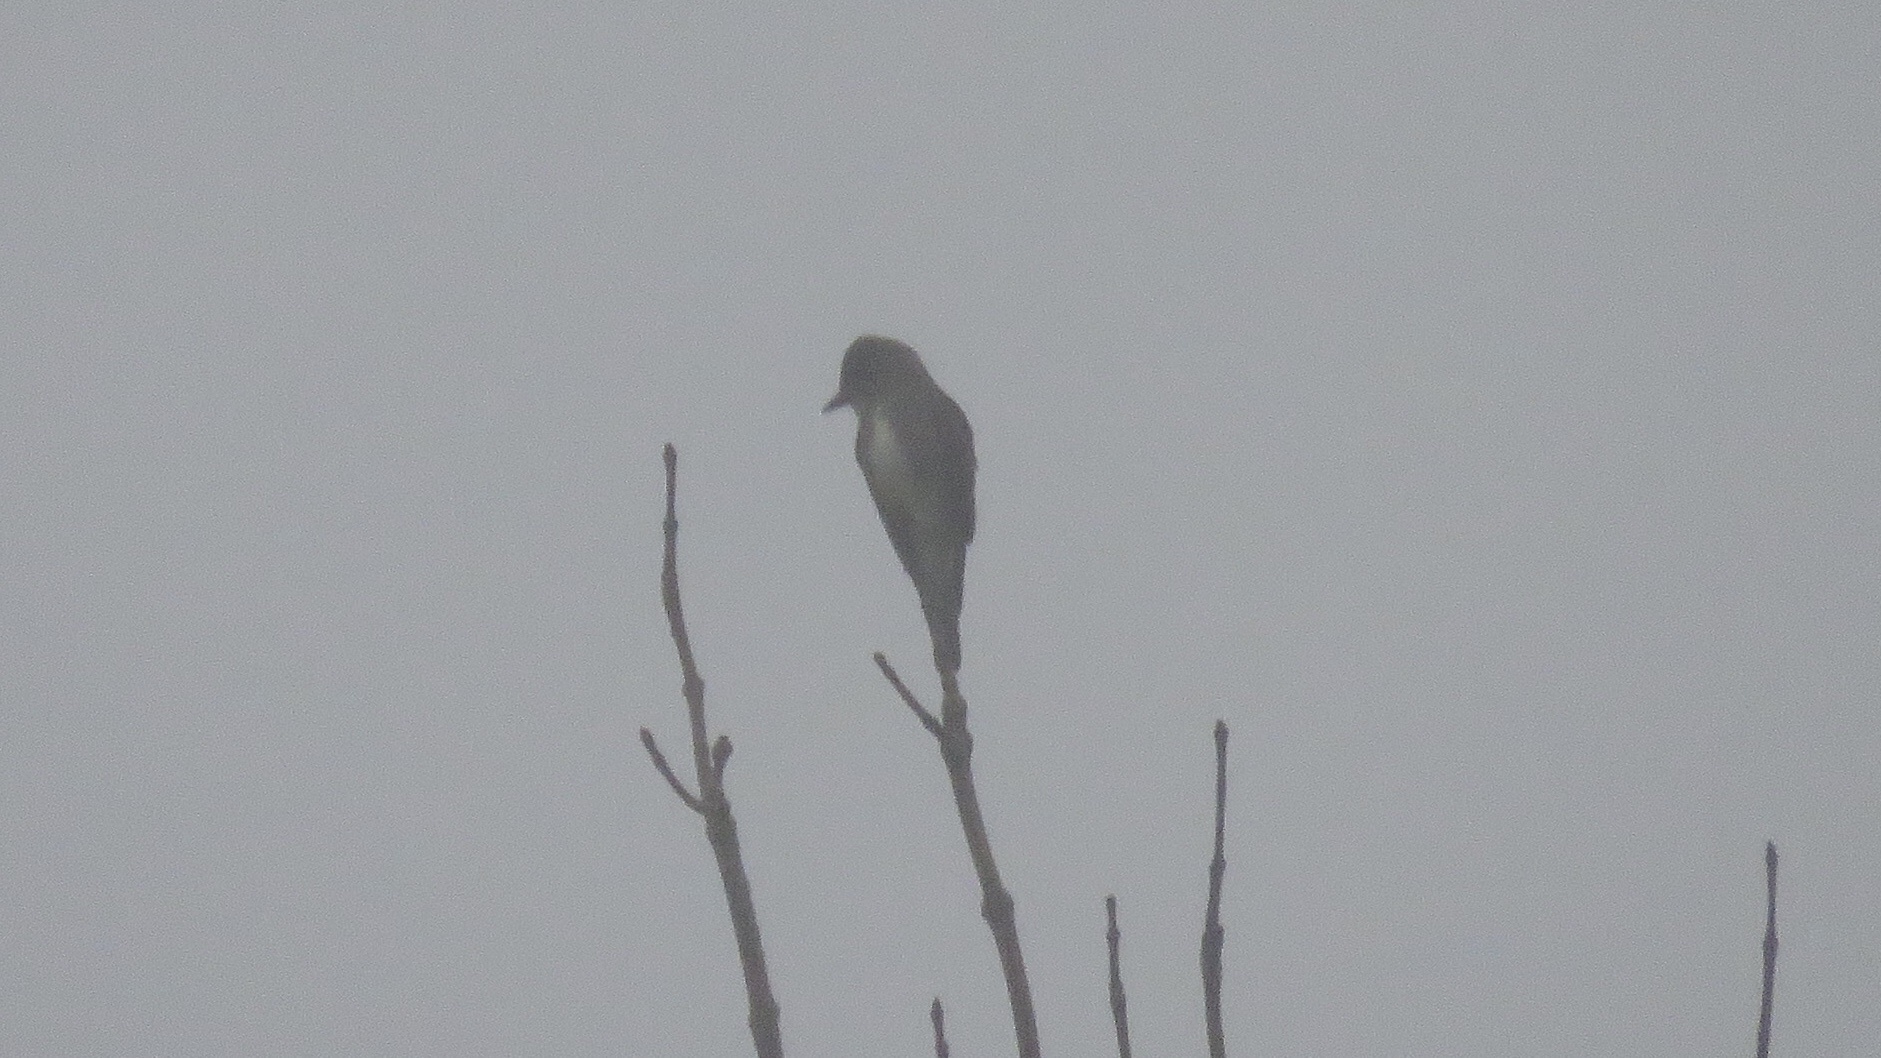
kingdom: Animalia
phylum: Chordata
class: Aves
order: Passeriformes
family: Tyrannidae
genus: Contopus
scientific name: Contopus cooperi
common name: Olive-sided flycatcher
